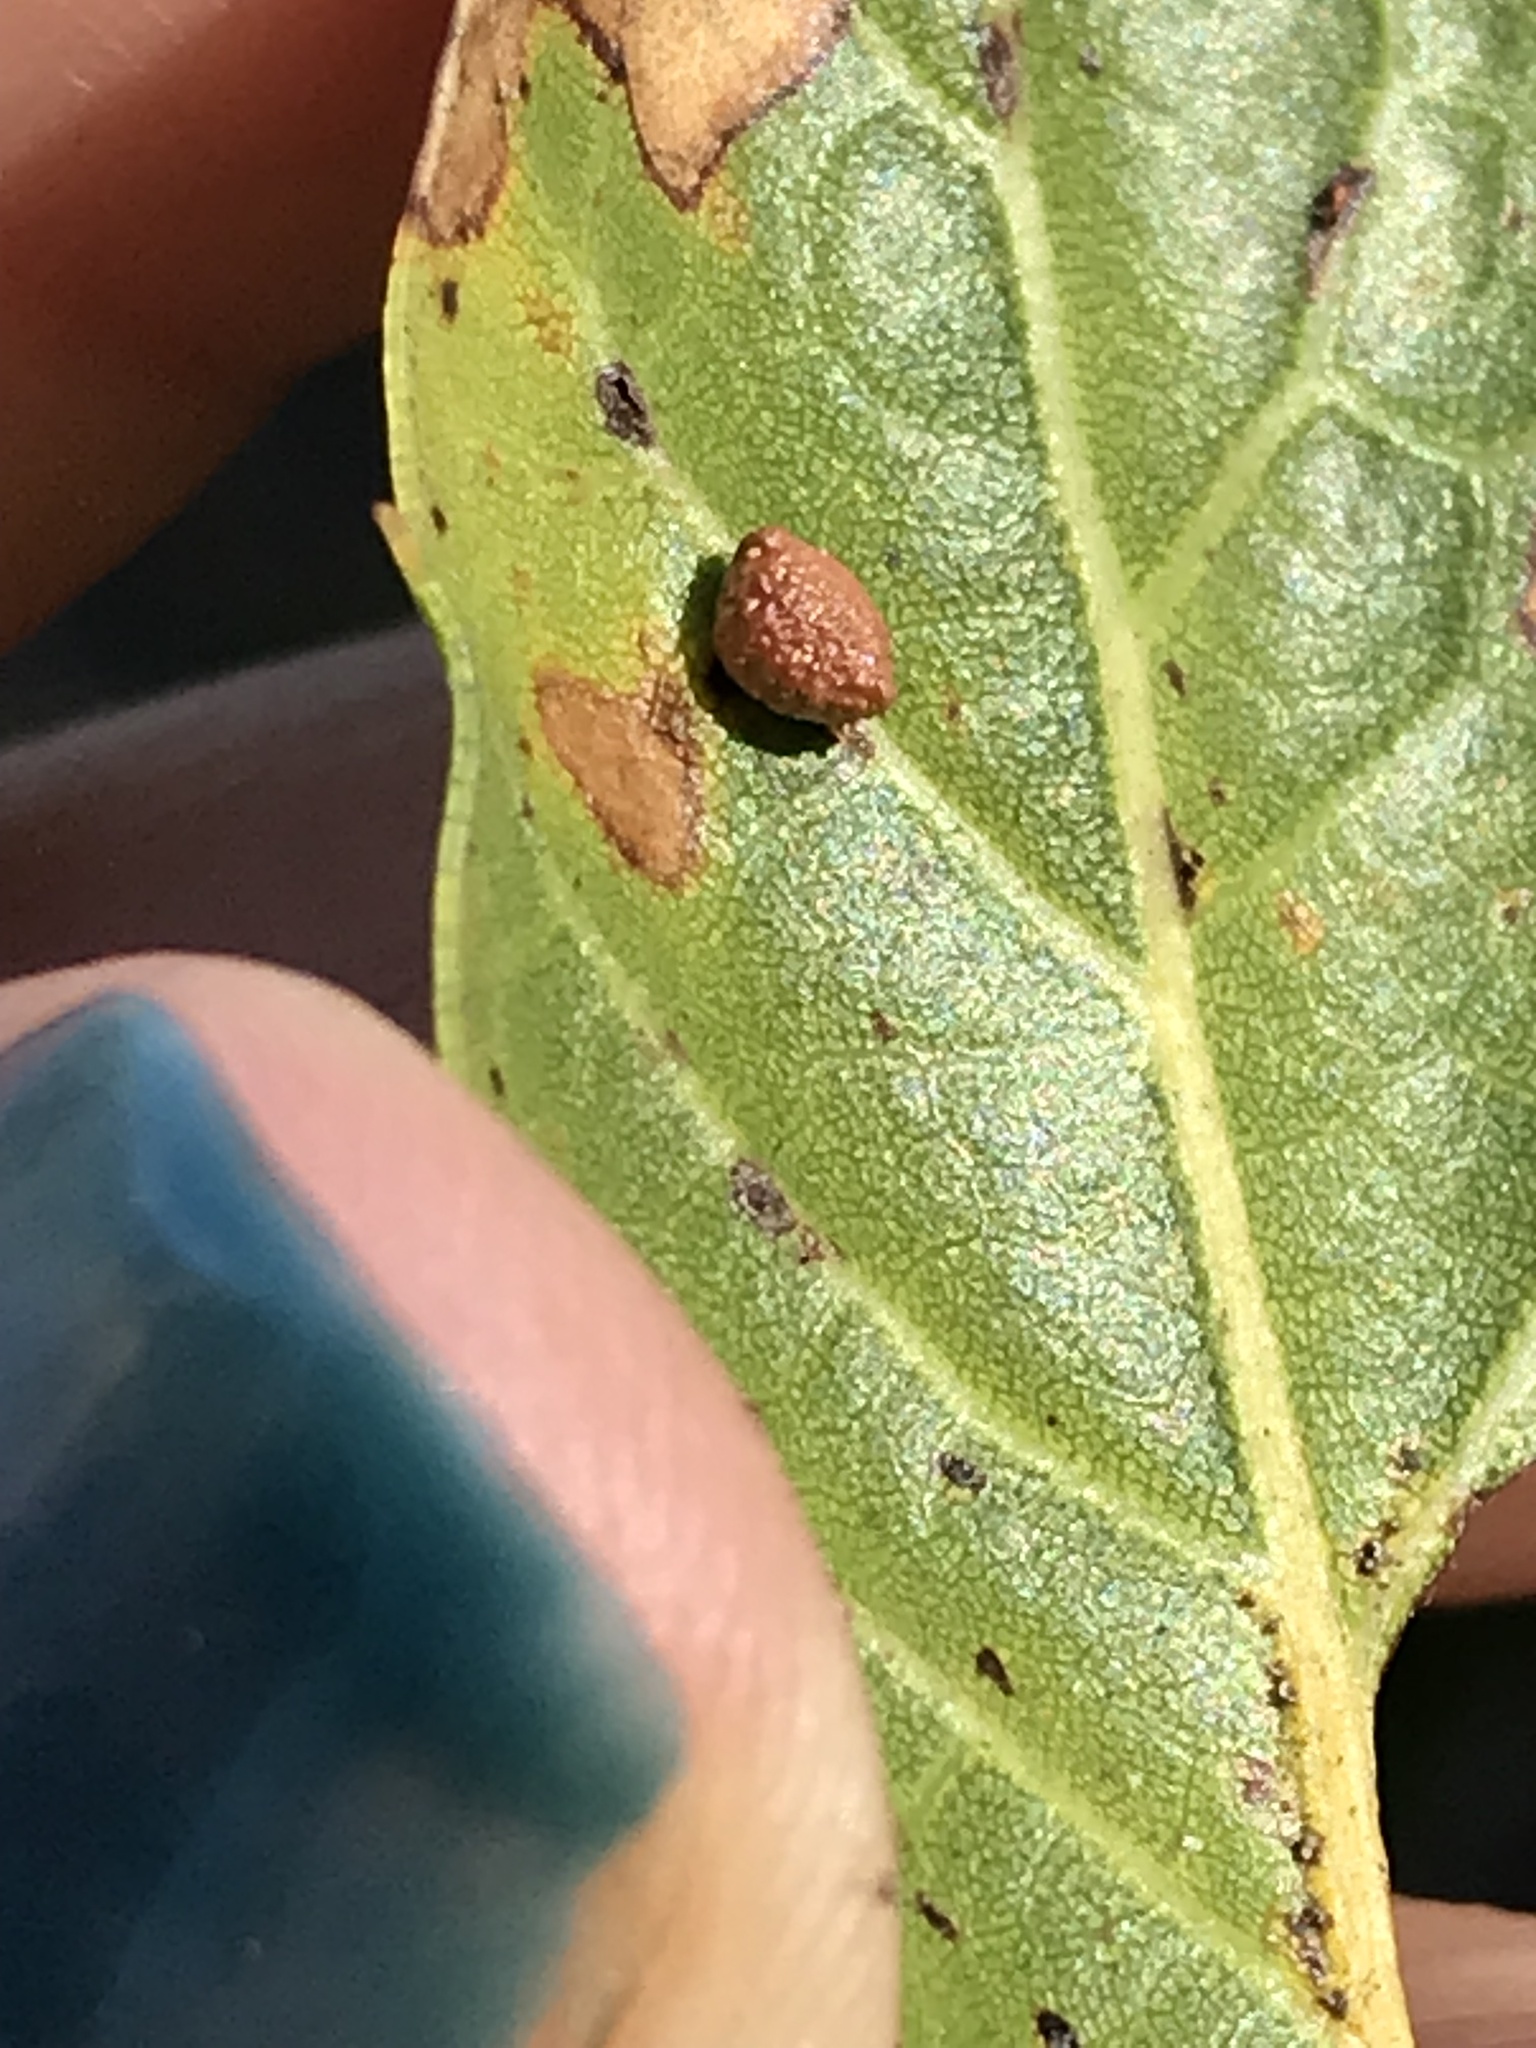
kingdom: Animalia
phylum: Arthropoda
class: Insecta
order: Hymenoptera
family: Cynipidae
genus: Dryocosmus
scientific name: Dryocosmus
